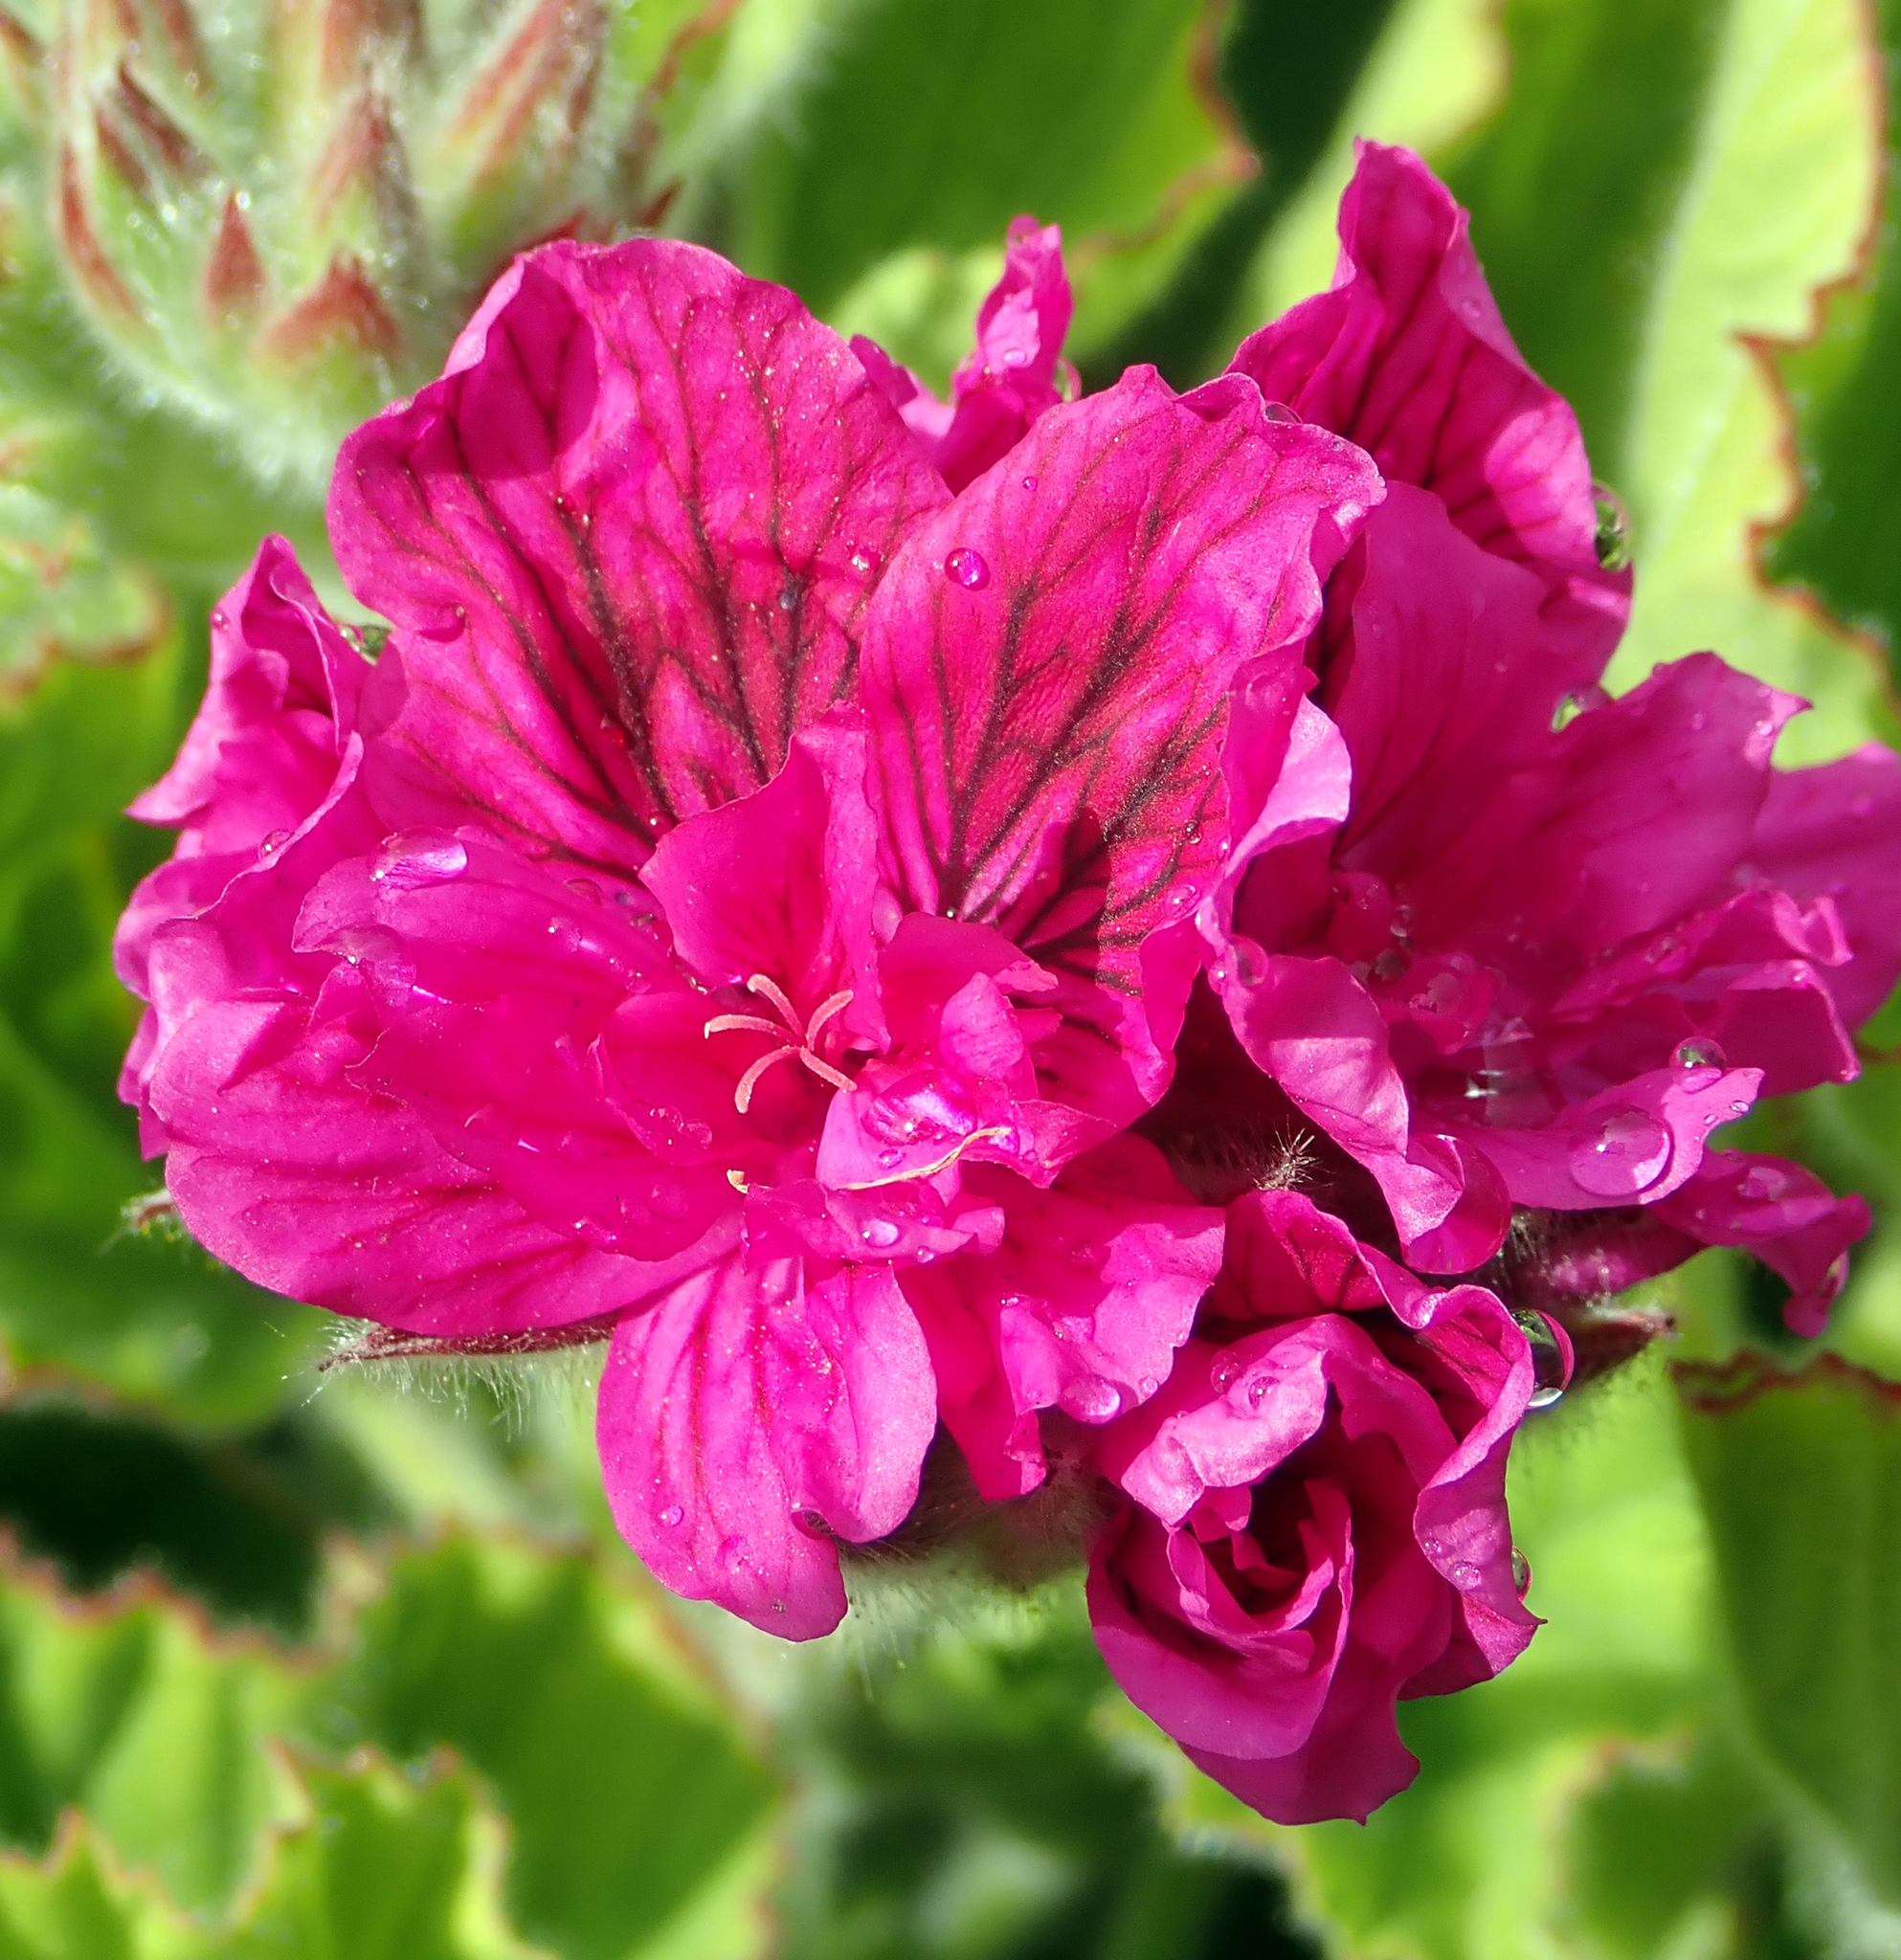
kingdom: Plantae
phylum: Tracheophyta
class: Magnoliopsida
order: Geraniales
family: Geraniaceae
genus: Pelargonium
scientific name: Pelargonium domesticum
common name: Regal pelargonium
